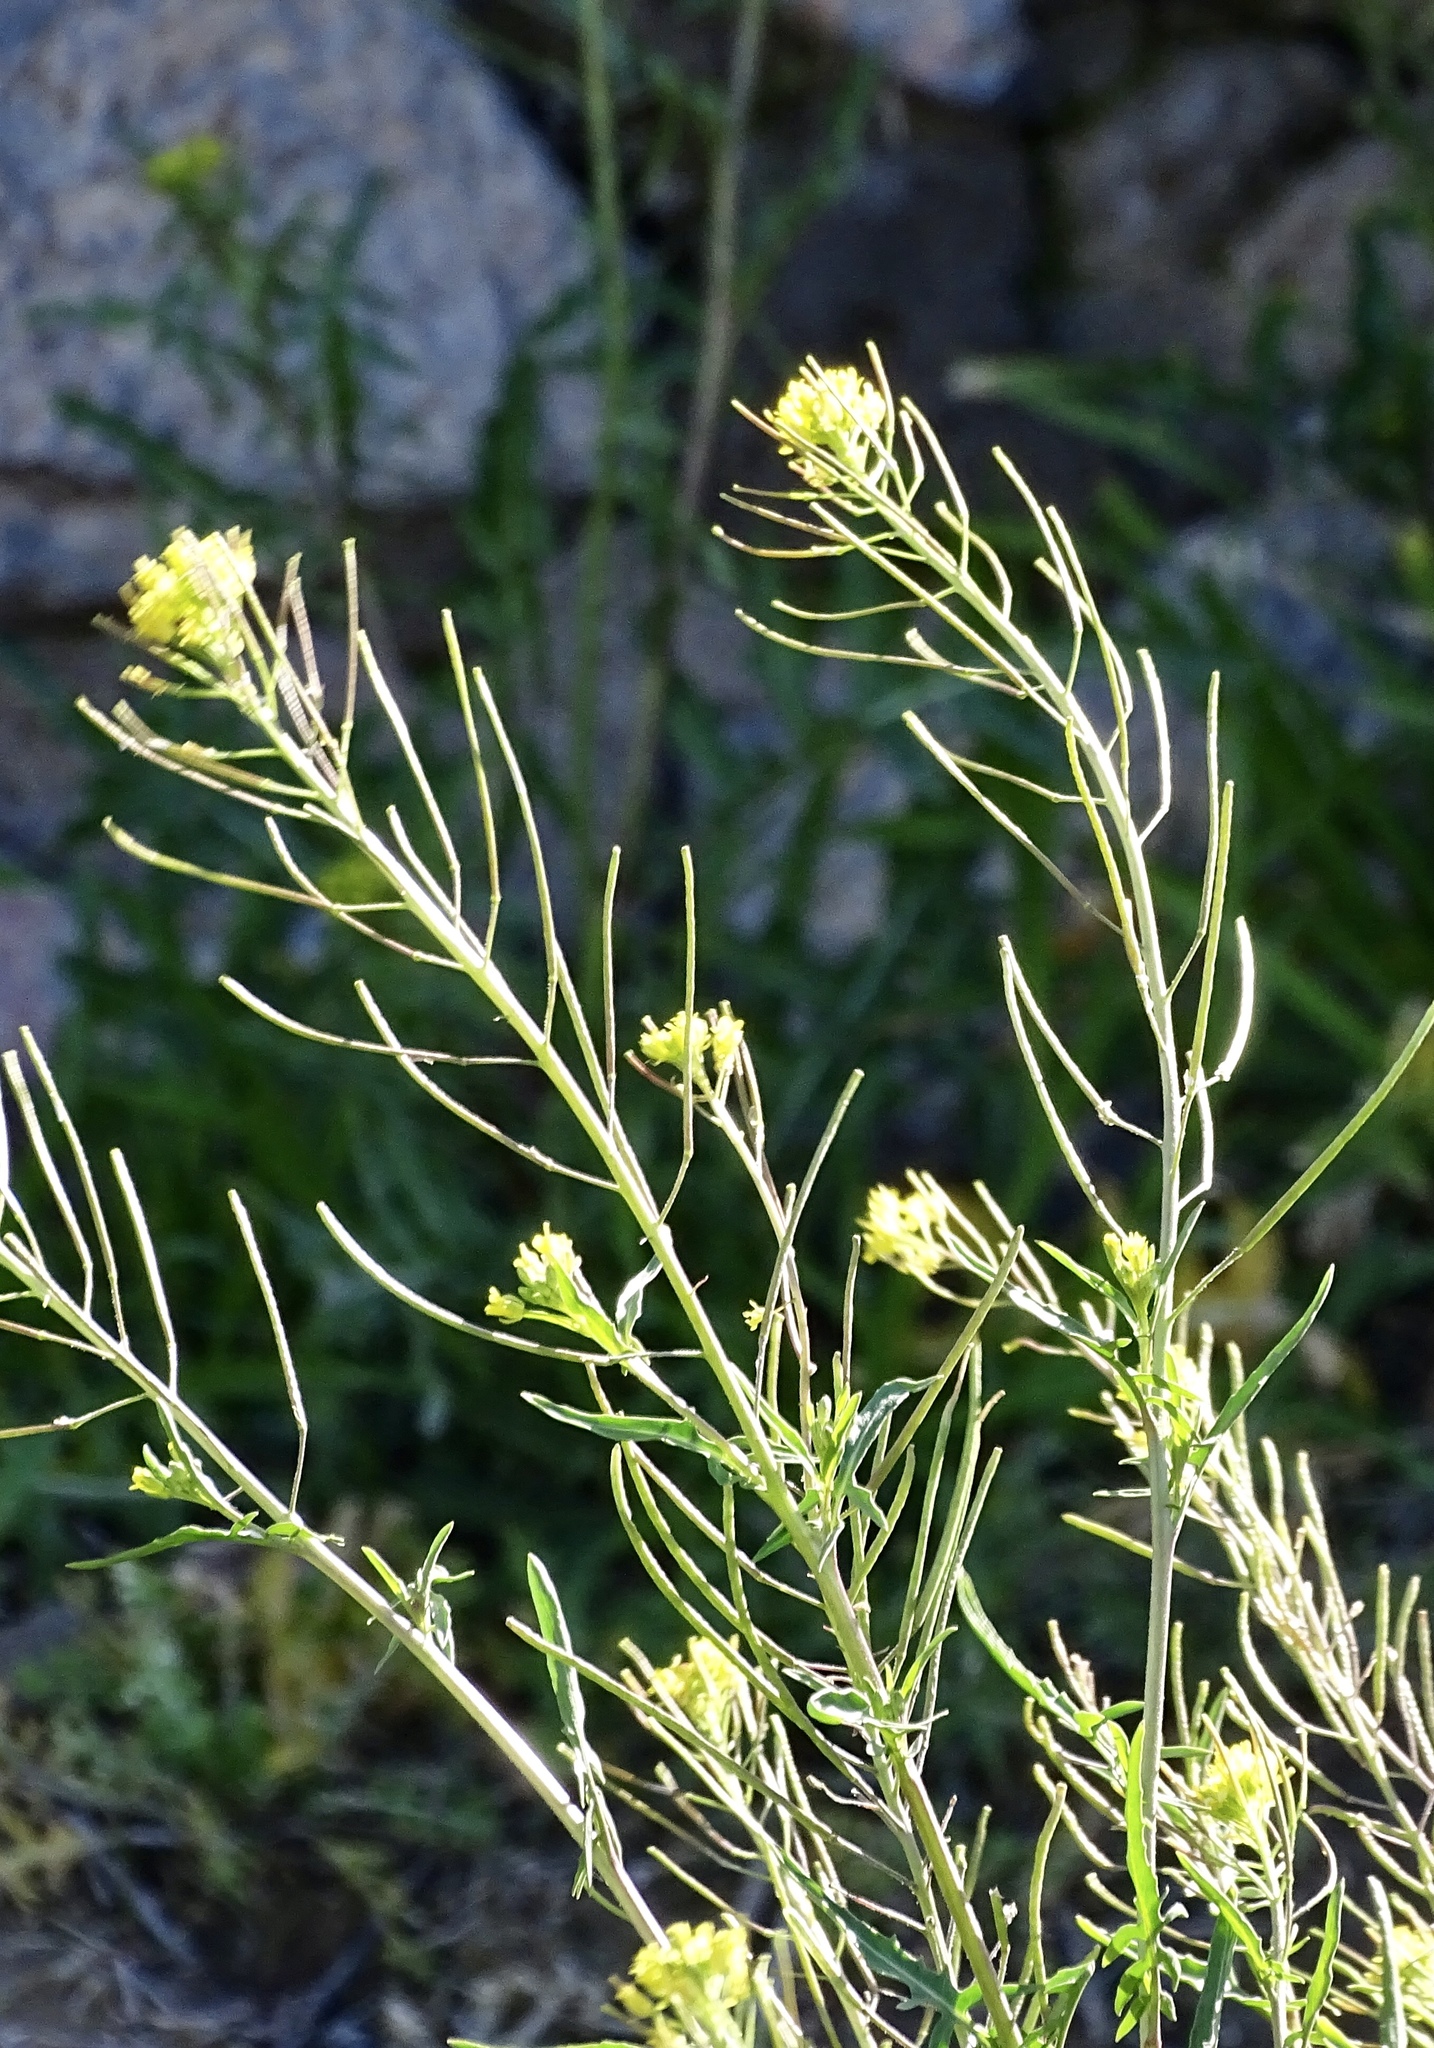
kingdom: Plantae
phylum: Tracheophyta
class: Magnoliopsida
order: Brassicales
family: Brassicaceae
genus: Sisymbrium
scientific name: Sisymbrium irio
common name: London rocket
